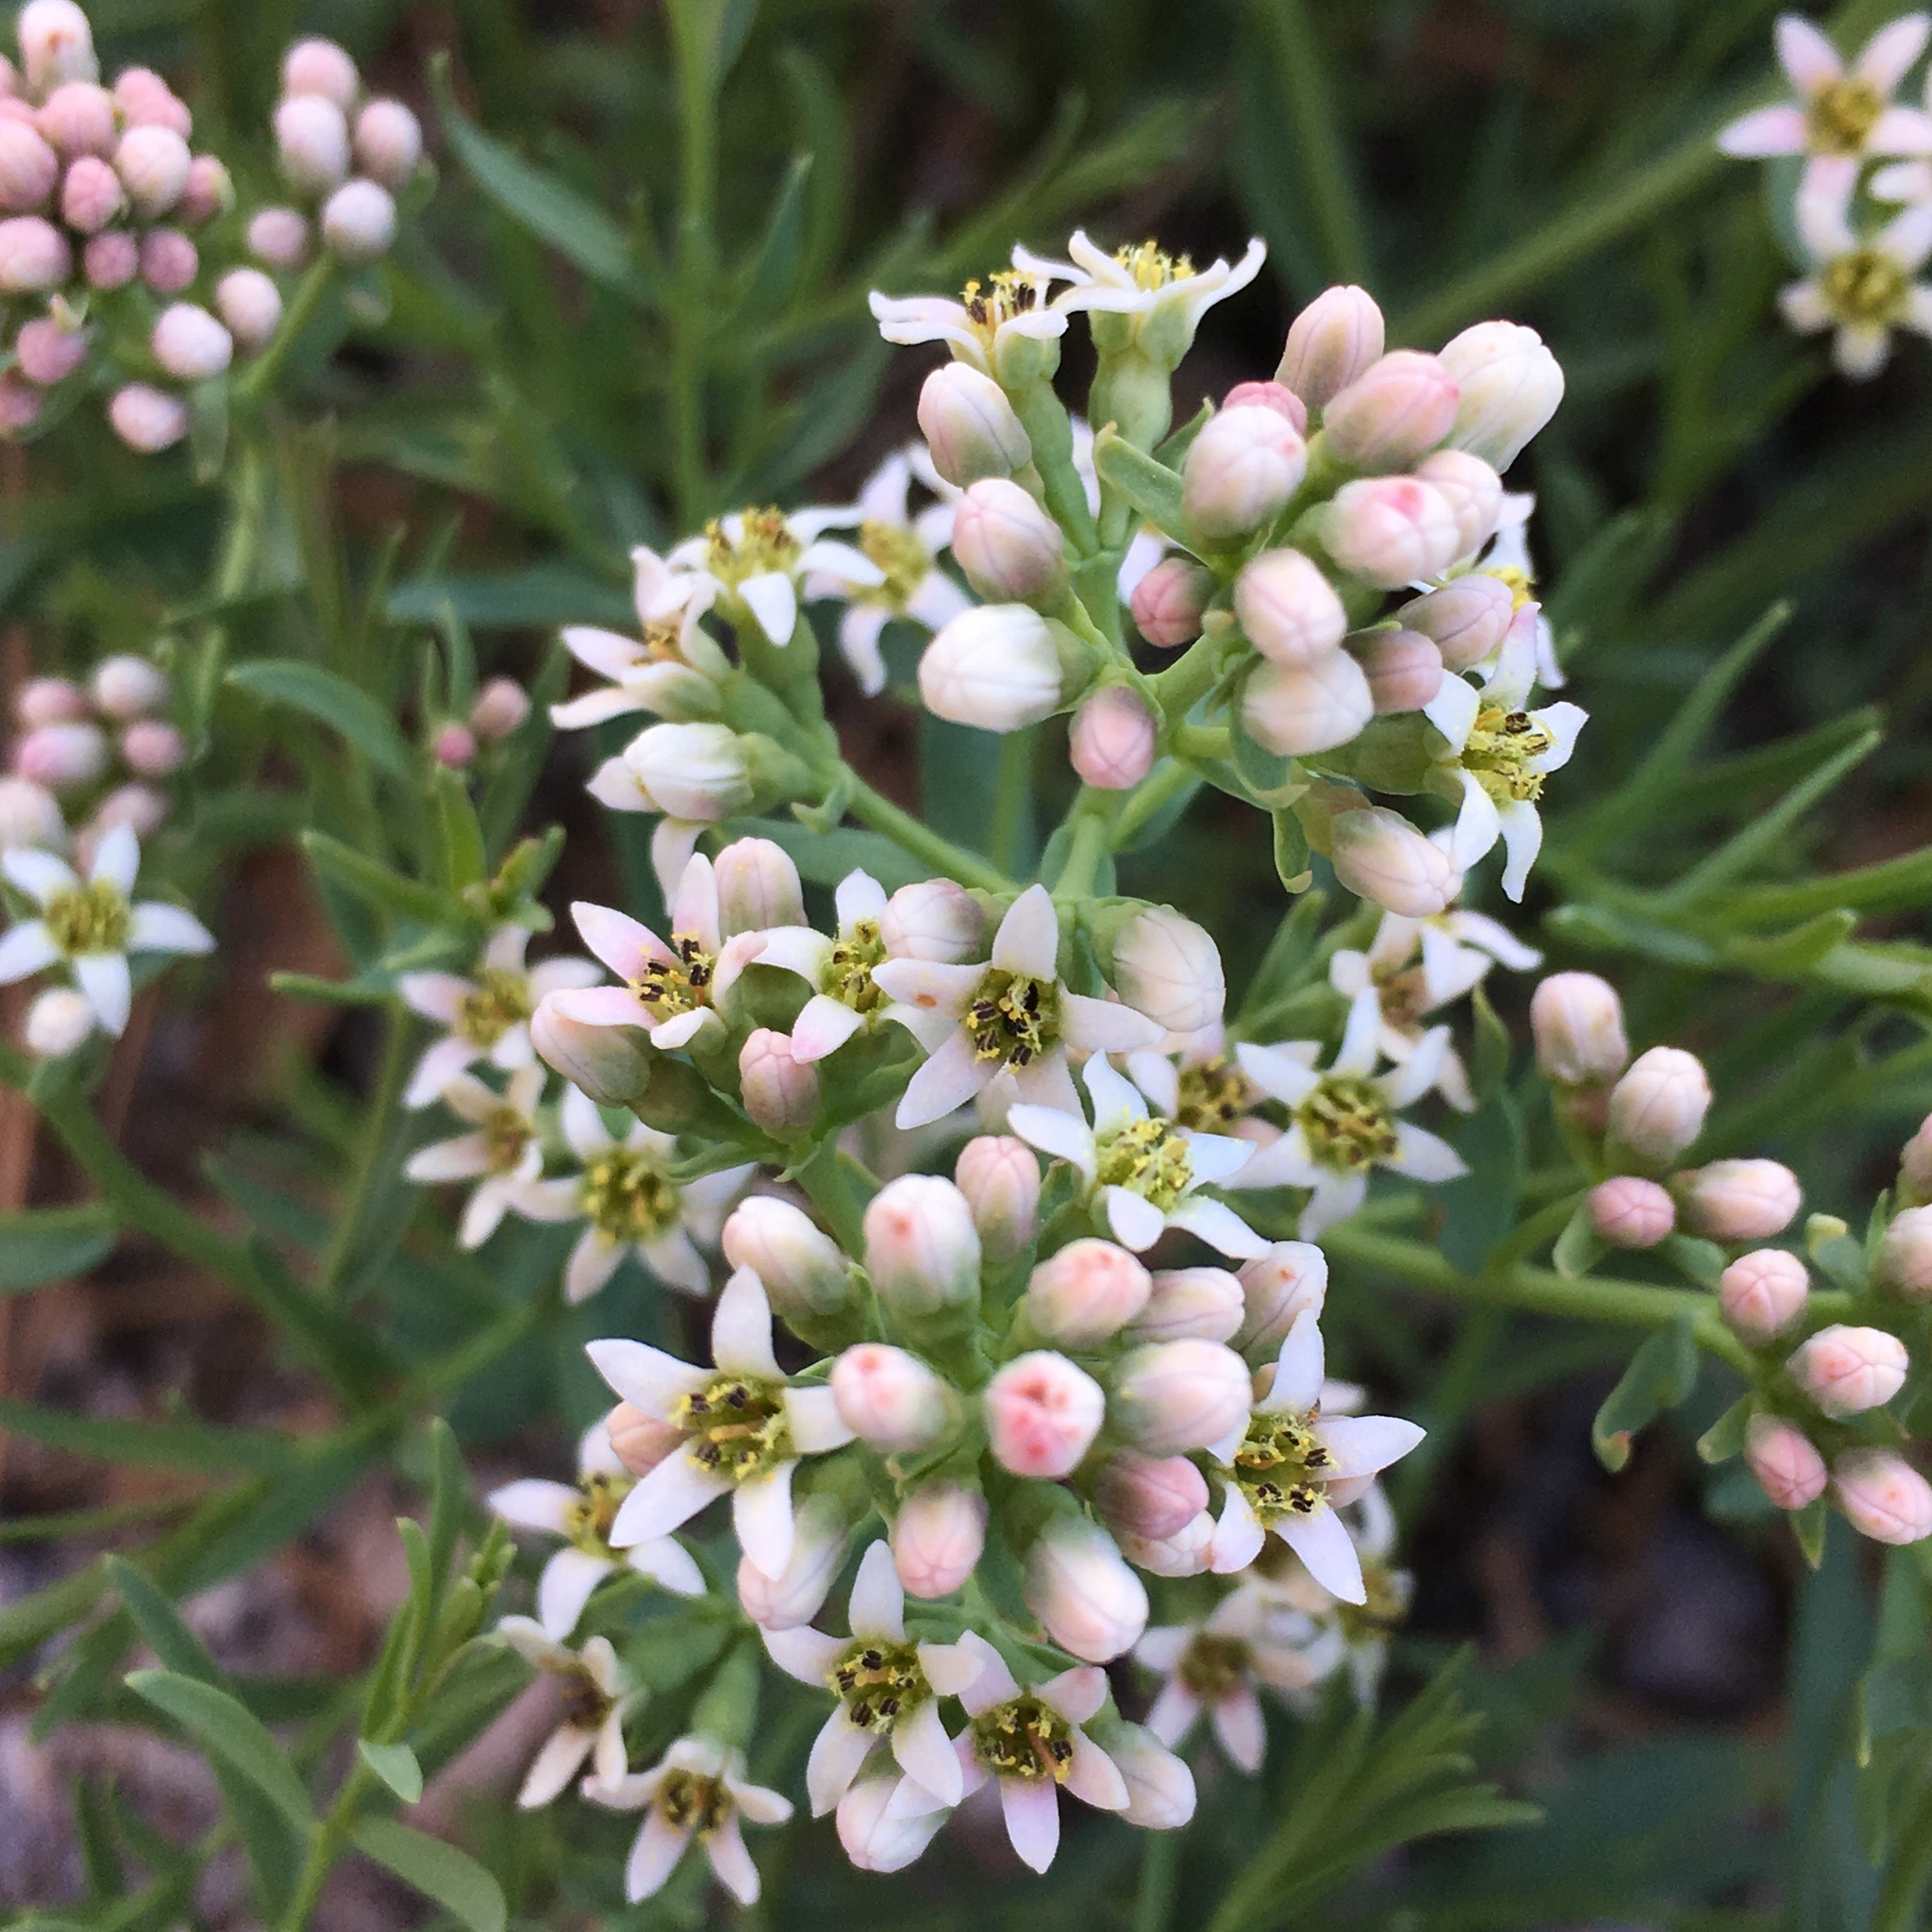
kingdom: Plantae
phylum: Tracheophyta
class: Magnoliopsida
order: Santalales
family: Comandraceae
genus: Comandra
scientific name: Comandra umbellata
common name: Bastard toadflax
